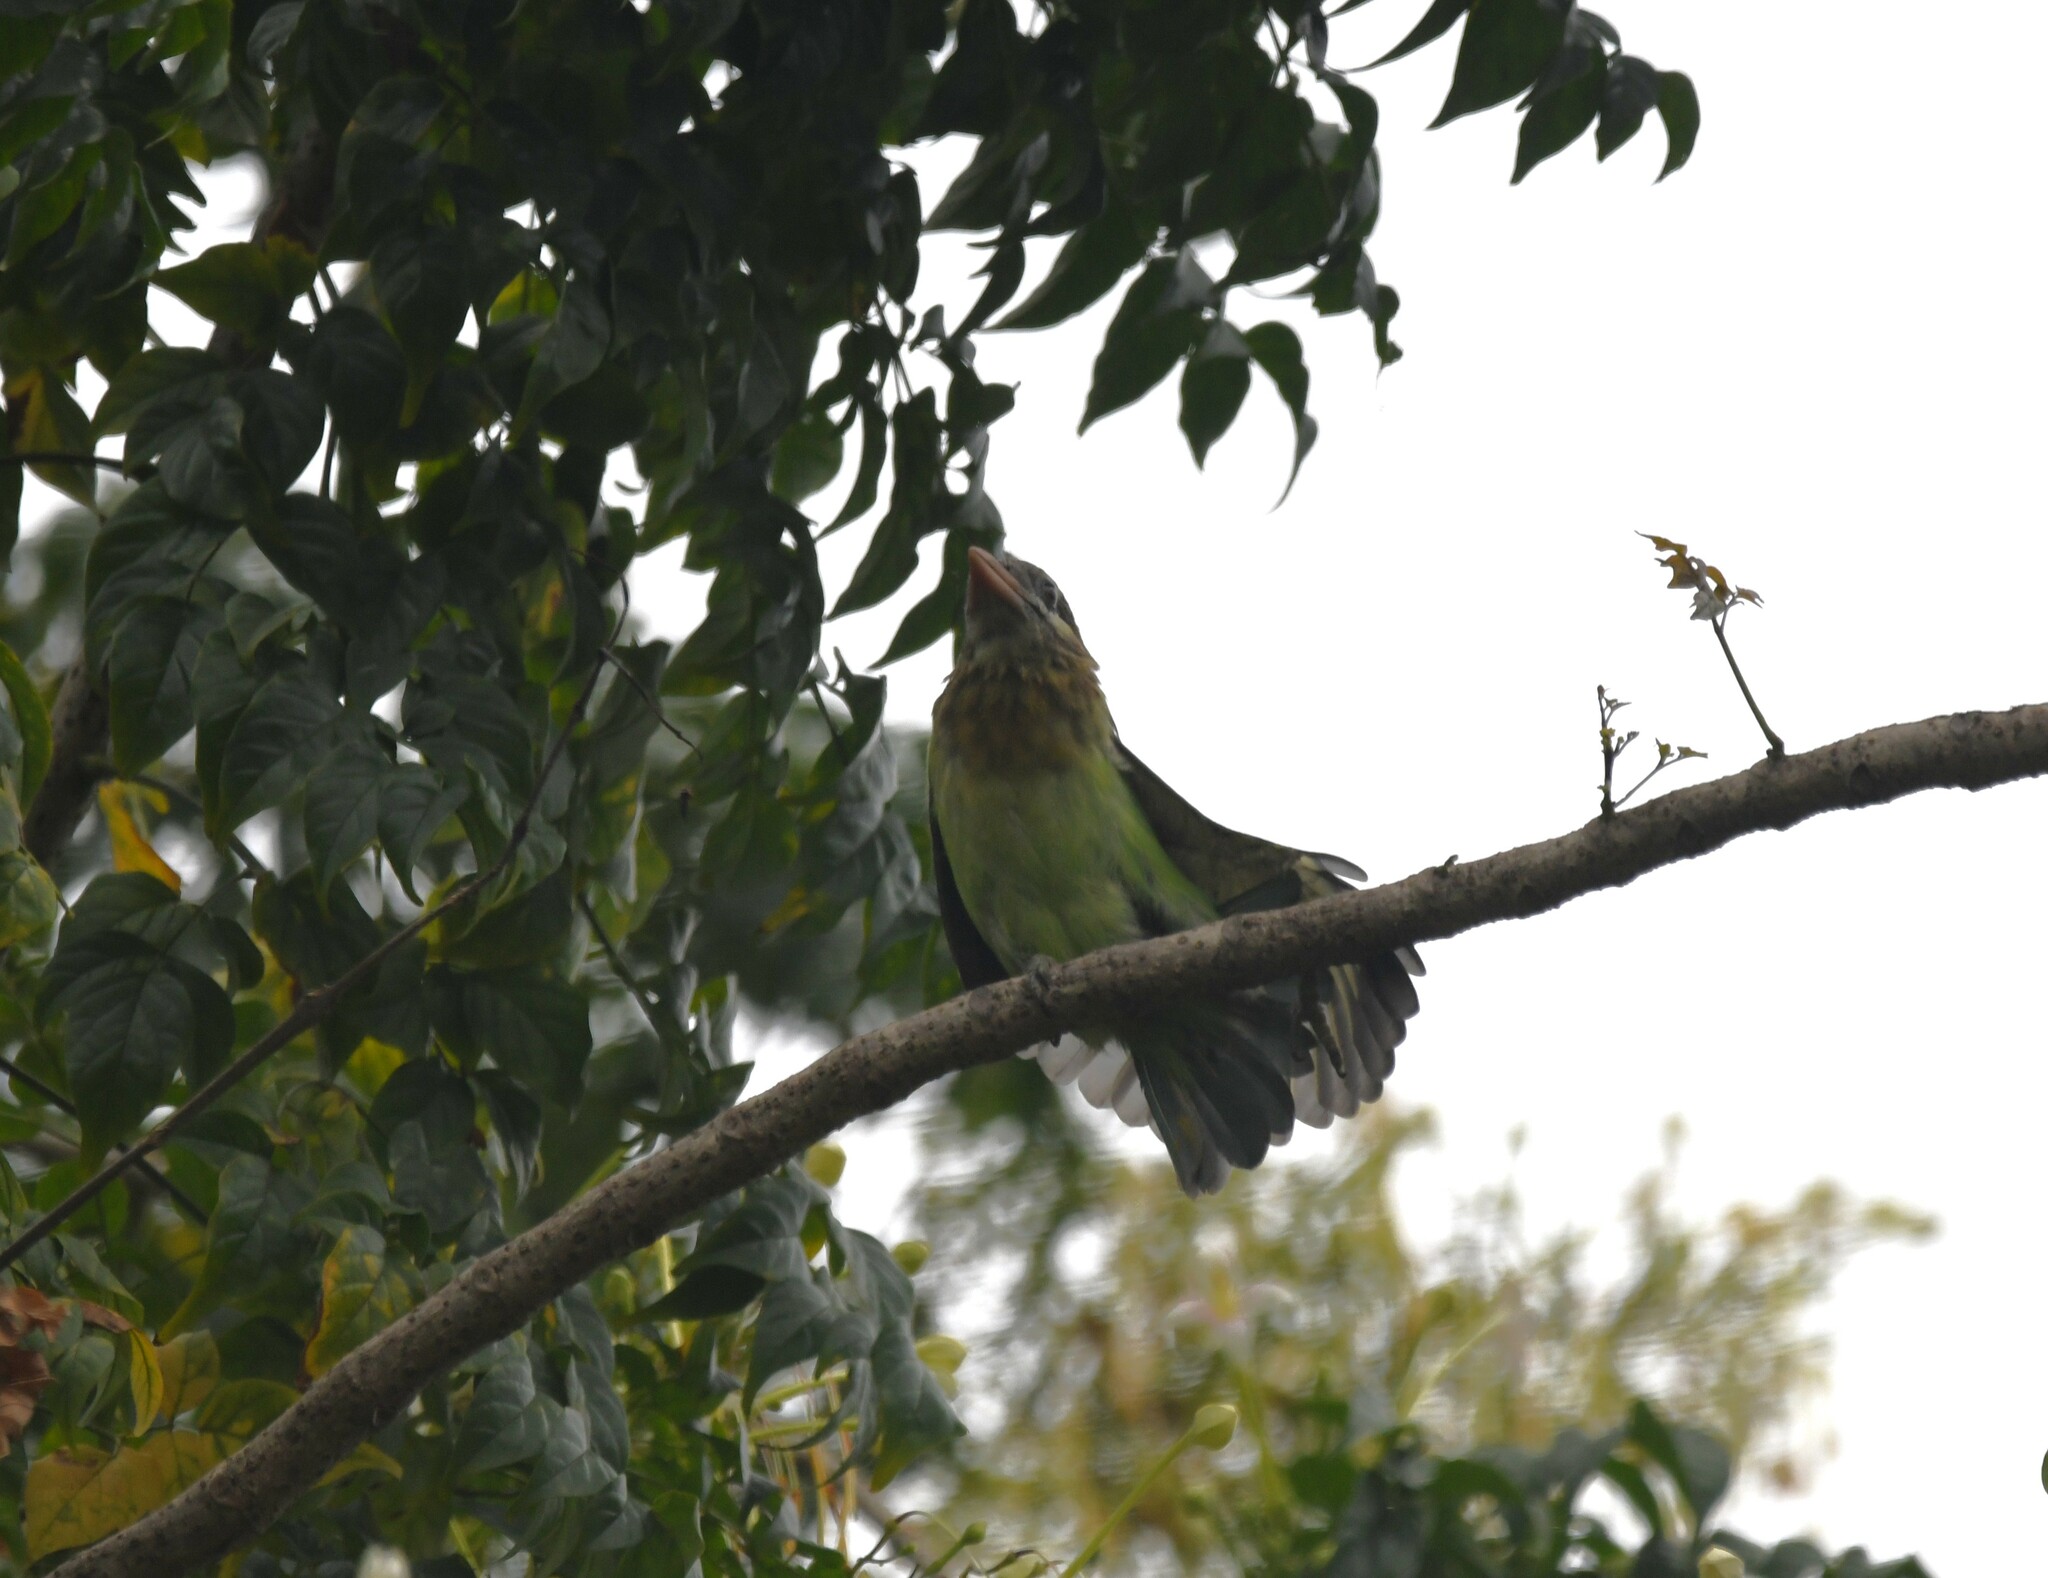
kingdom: Animalia
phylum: Chordata
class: Aves
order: Piciformes
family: Megalaimidae
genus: Psilopogon
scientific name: Psilopogon viridis
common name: White-cheeked barbet
